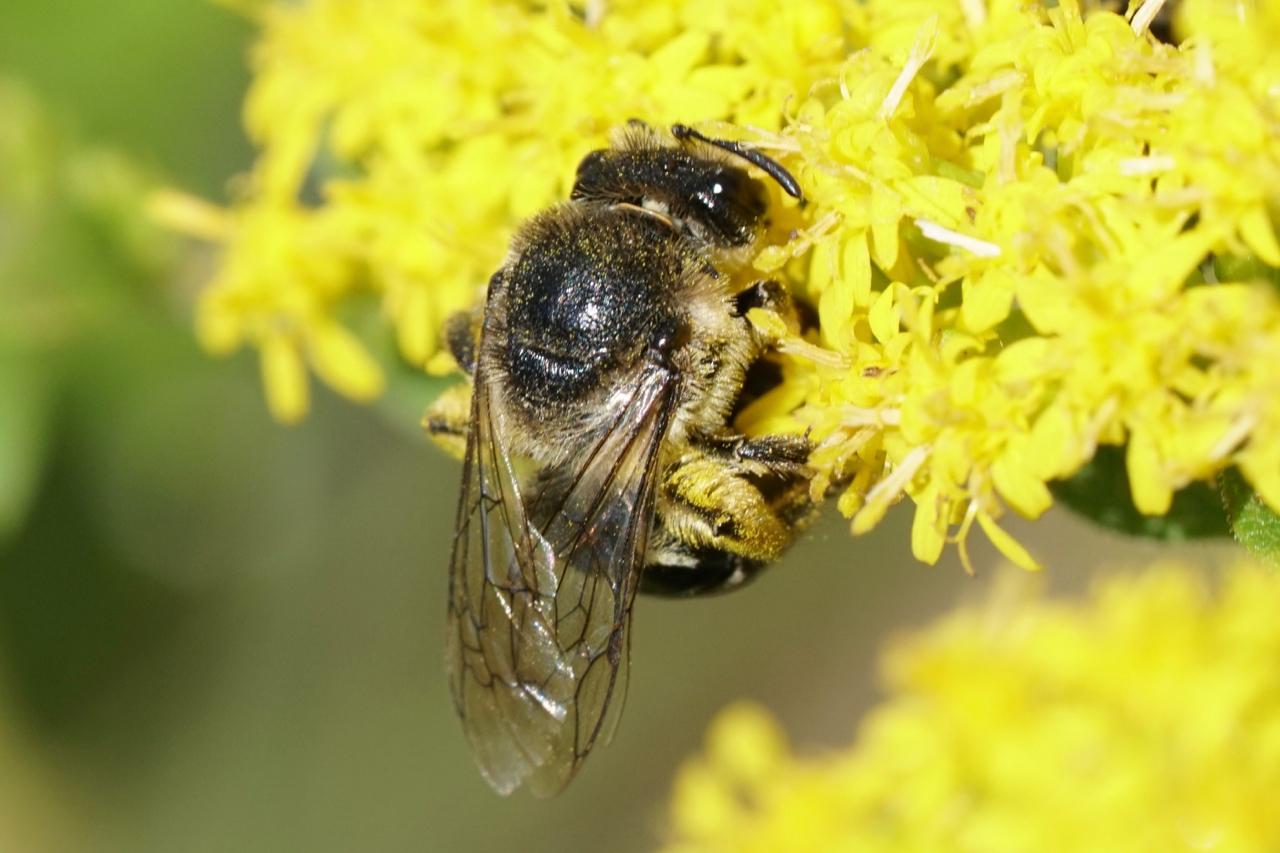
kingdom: Animalia
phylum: Arthropoda
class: Insecta
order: Hymenoptera
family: Colletidae
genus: Colletes
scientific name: Colletes simulans
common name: Spine-shouldered cellophane bee
